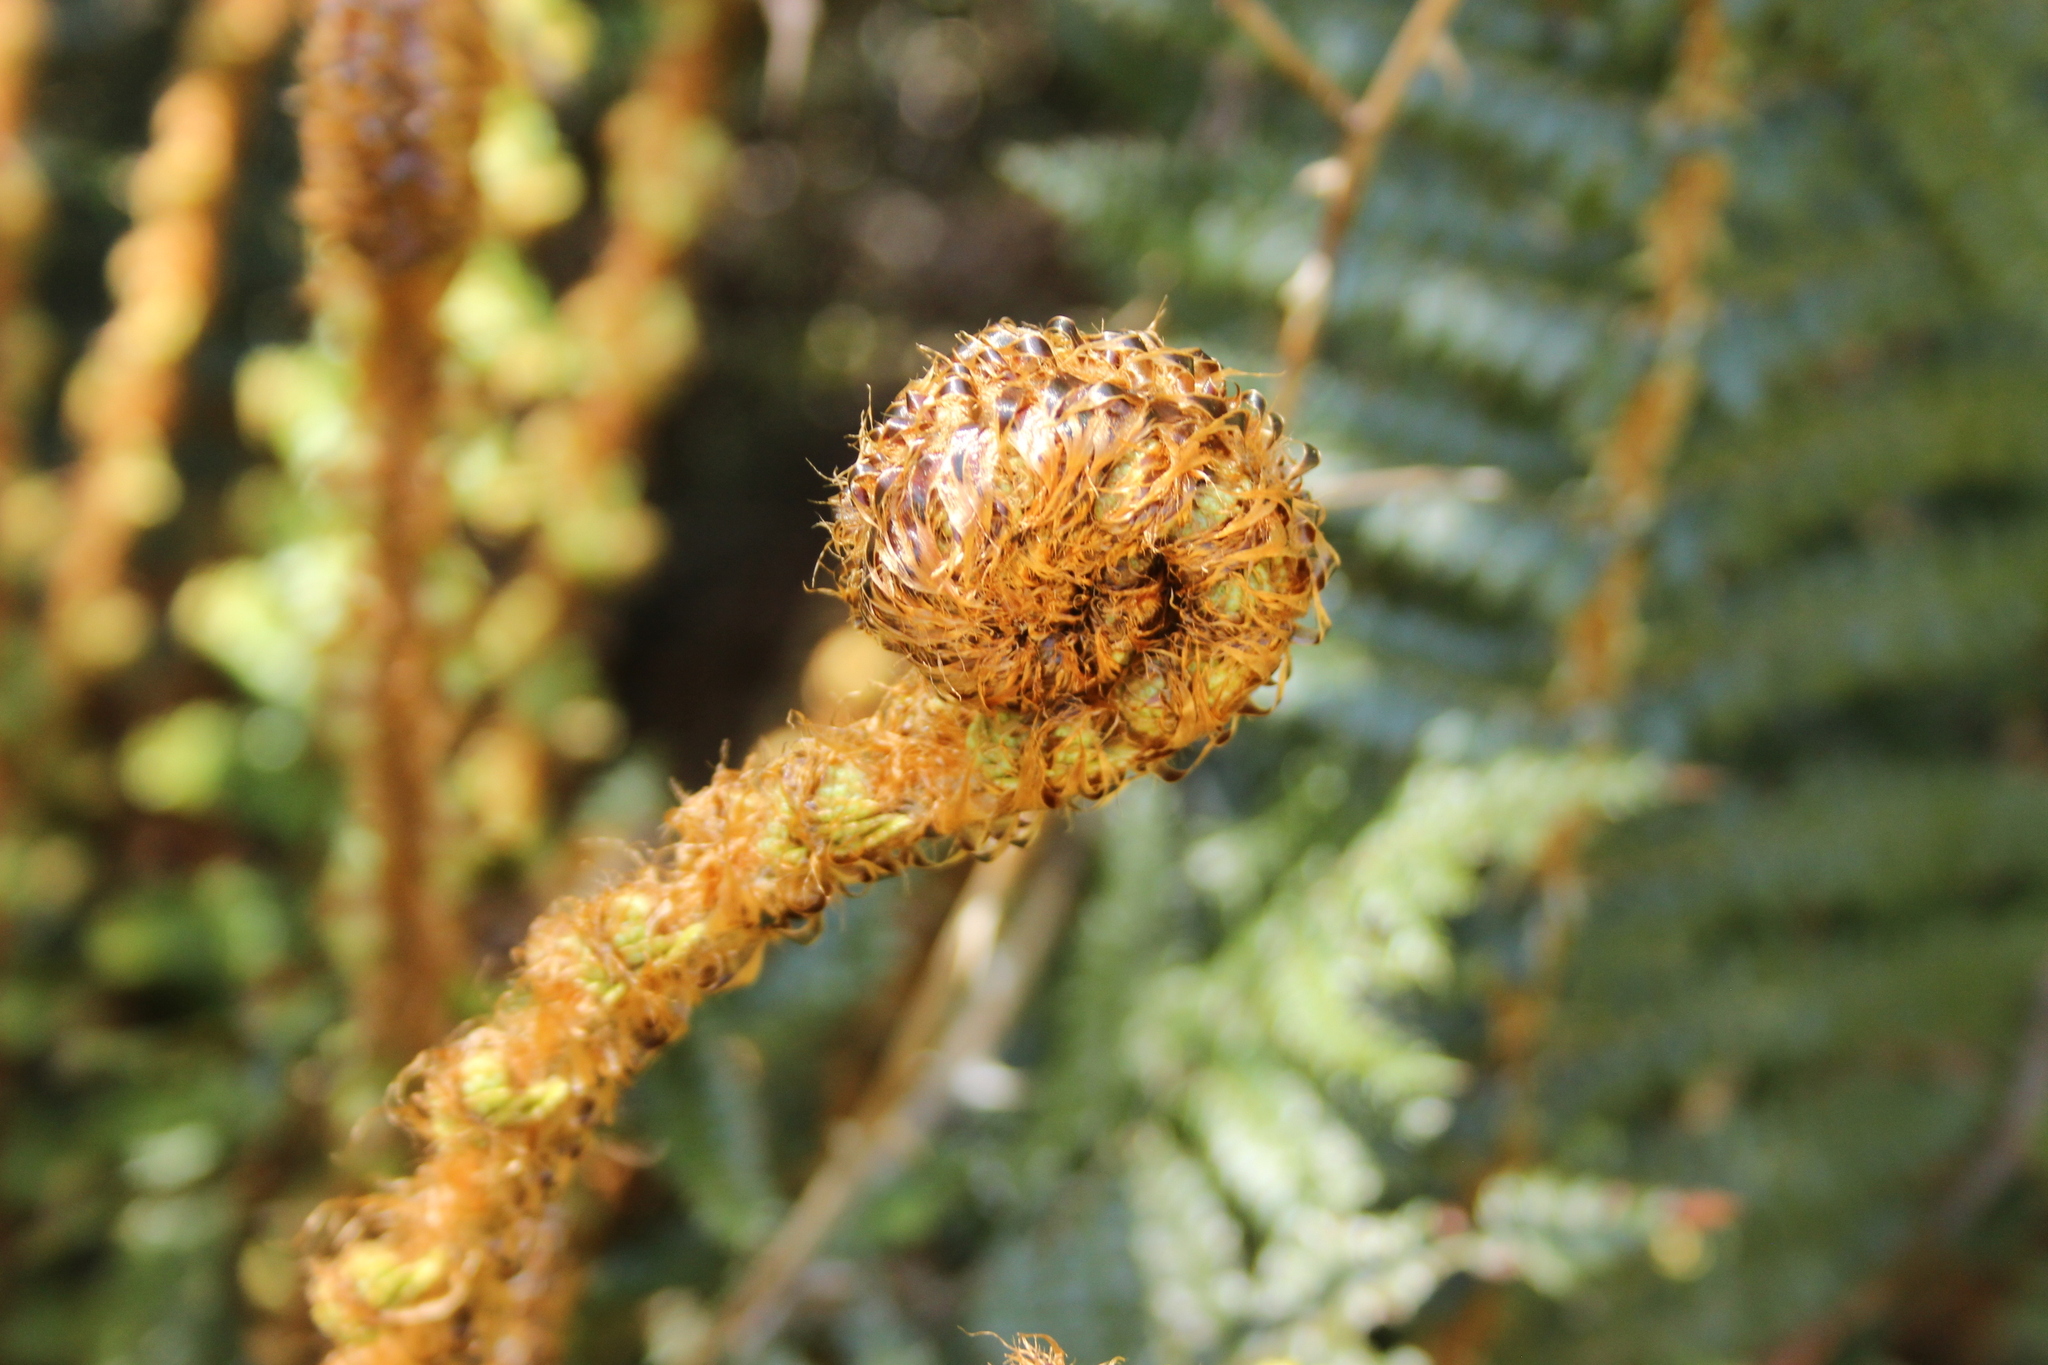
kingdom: Plantae
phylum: Tracheophyta
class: Polypodiopsida
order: Polypodiales
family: Dryopteridaceae
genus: Polystichum
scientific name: Polystichum vestitum
